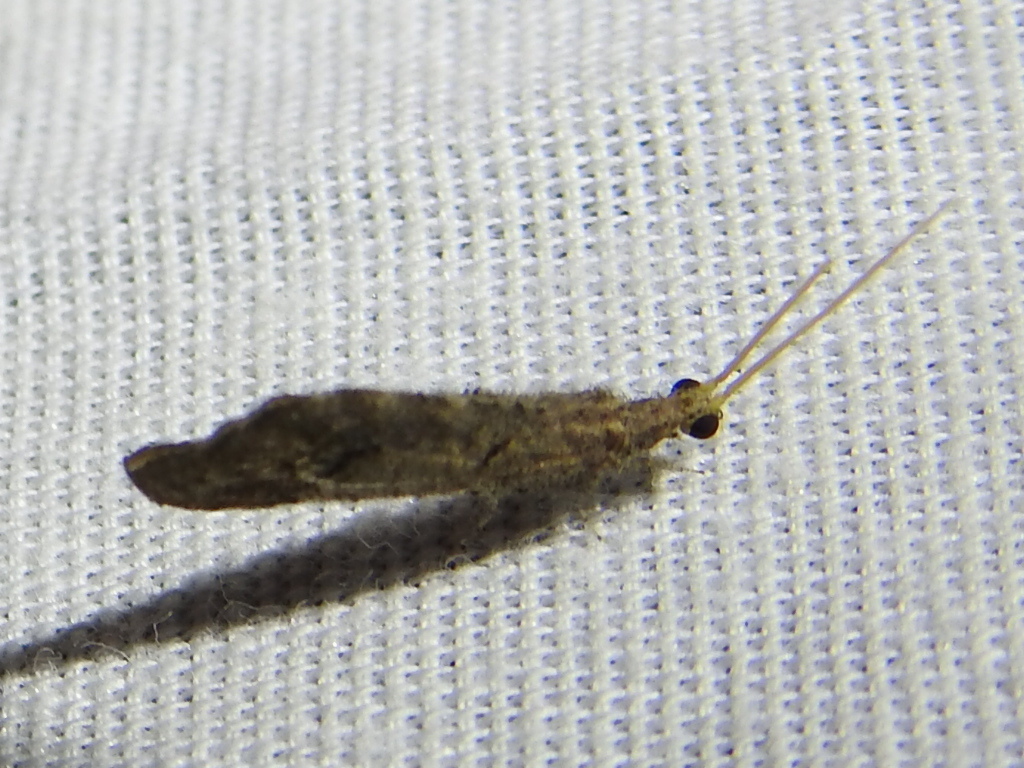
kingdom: Animalia
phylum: Arthropoda
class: Insecta
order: Neuroptera
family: Berothidae
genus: Lomamyia
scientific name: Lomamyia squamosa
